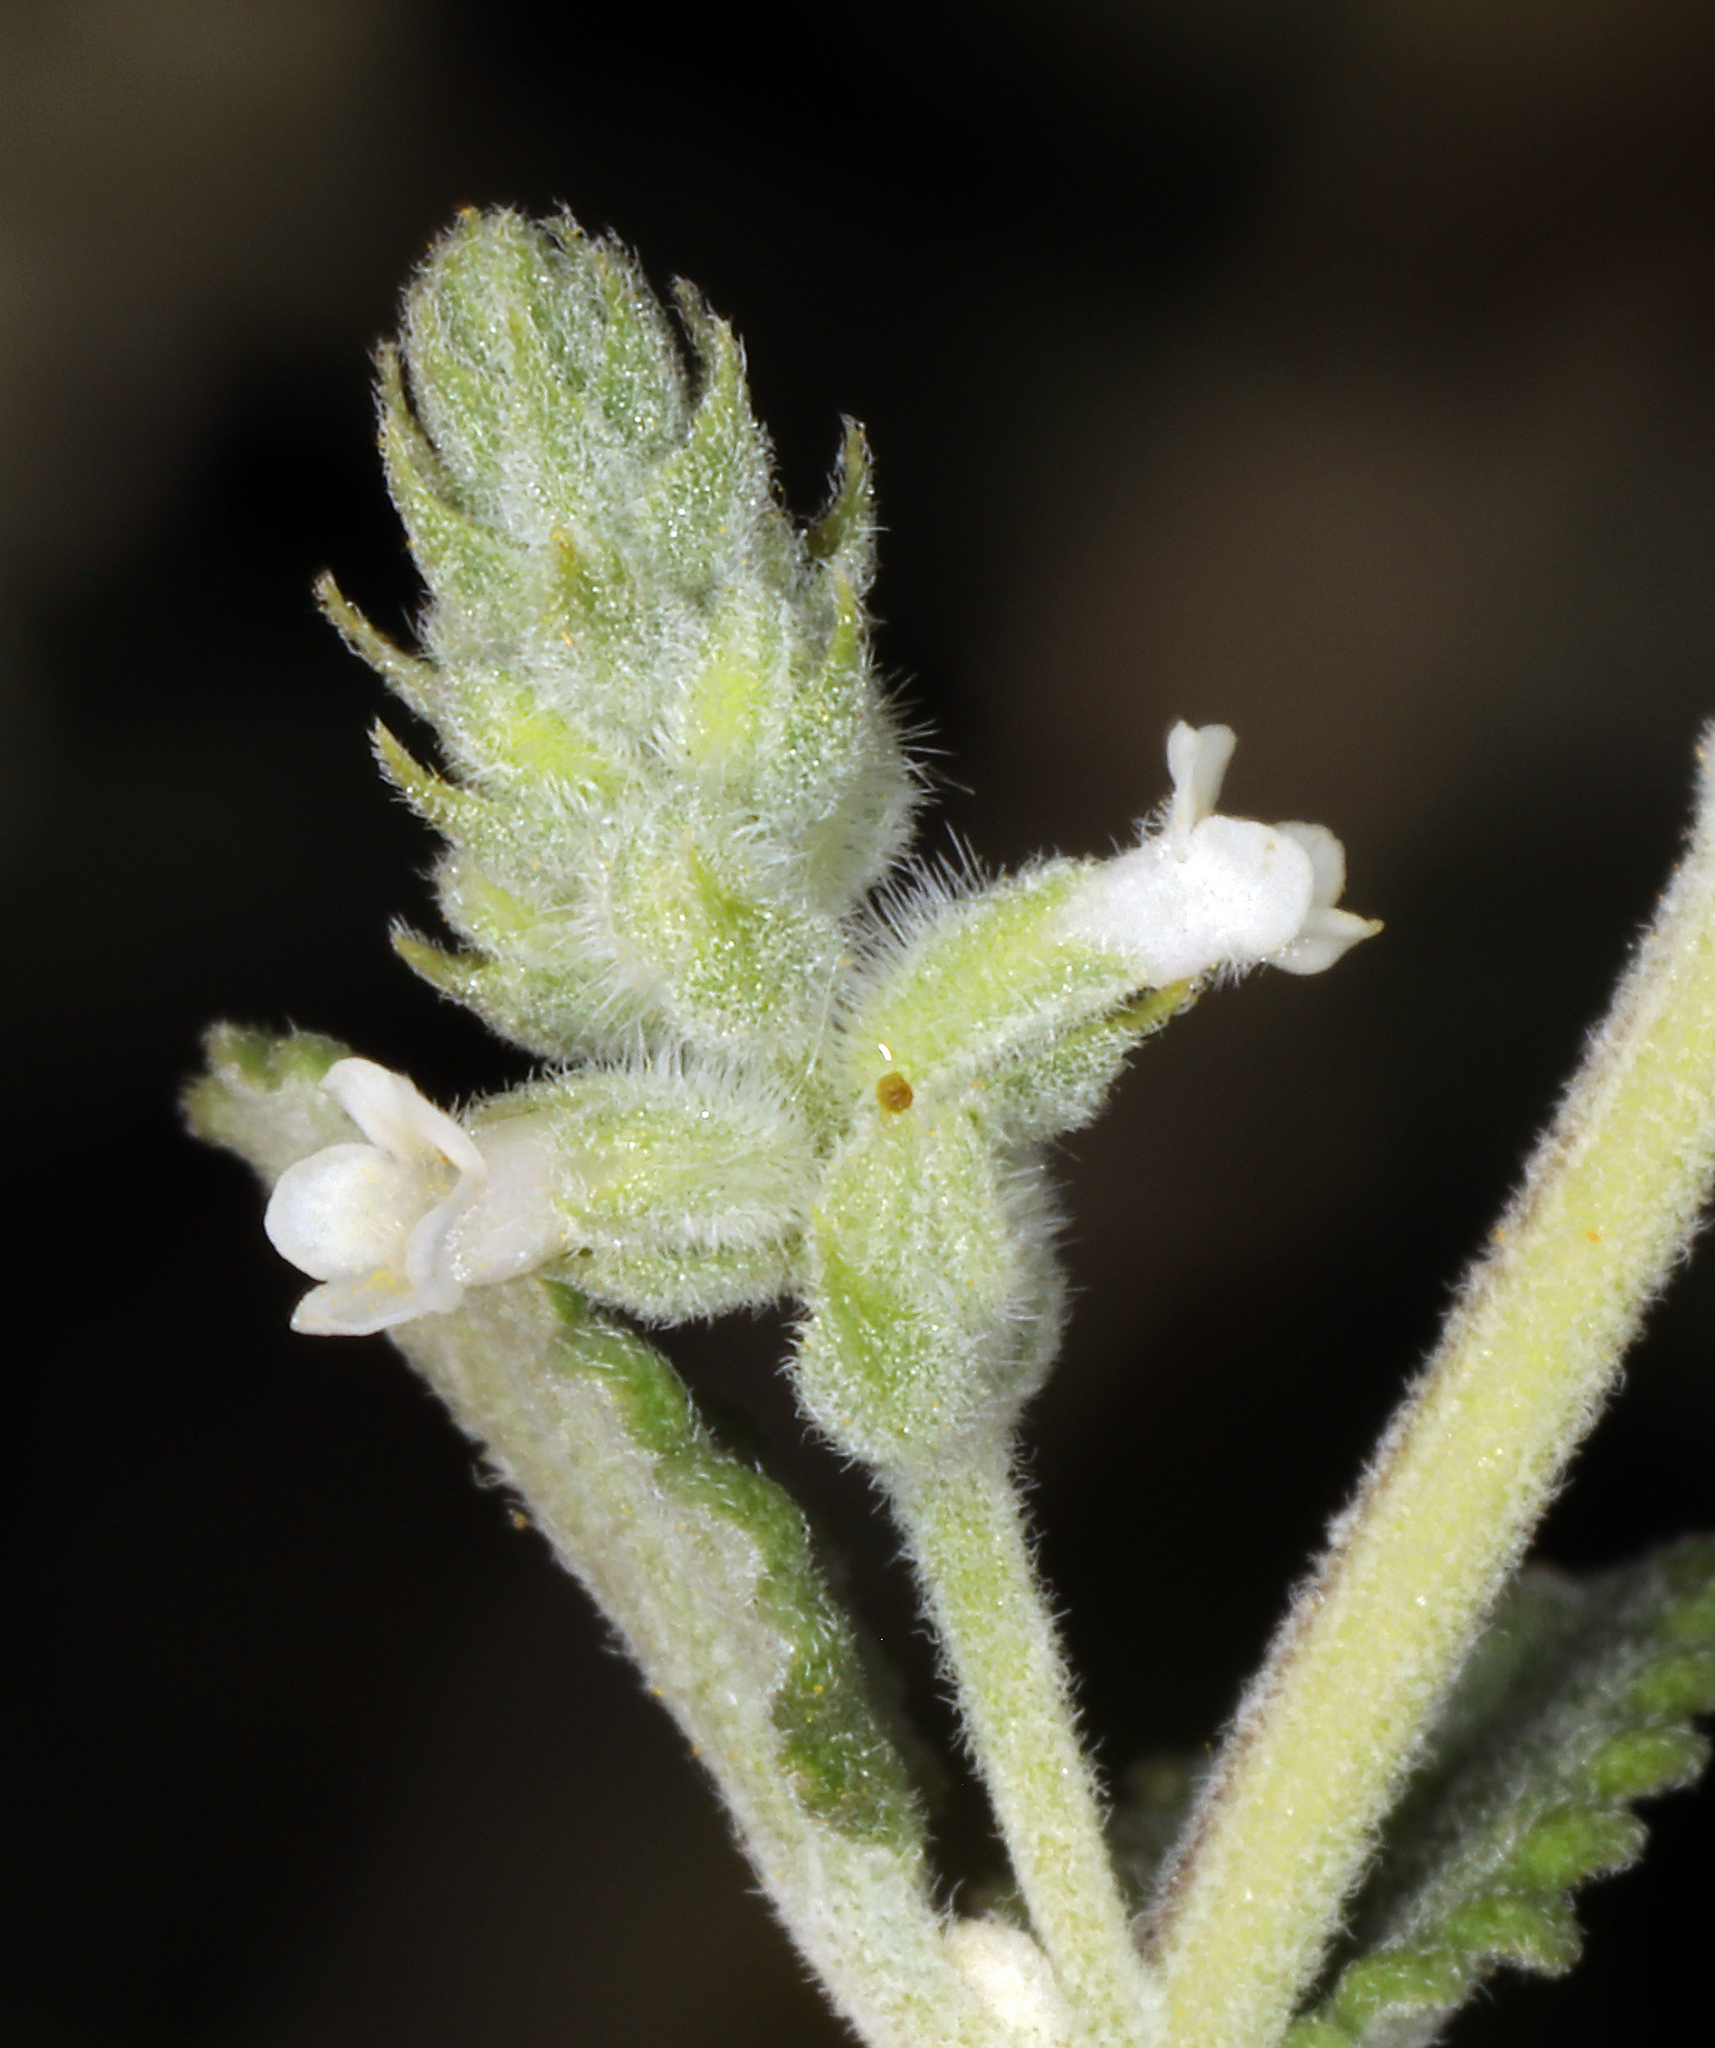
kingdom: Plantae
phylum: Tracheophyta
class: Magnoliopsida
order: Lamiales
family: Verbenaceae
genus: Aloysia
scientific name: Aloysia wrightii
